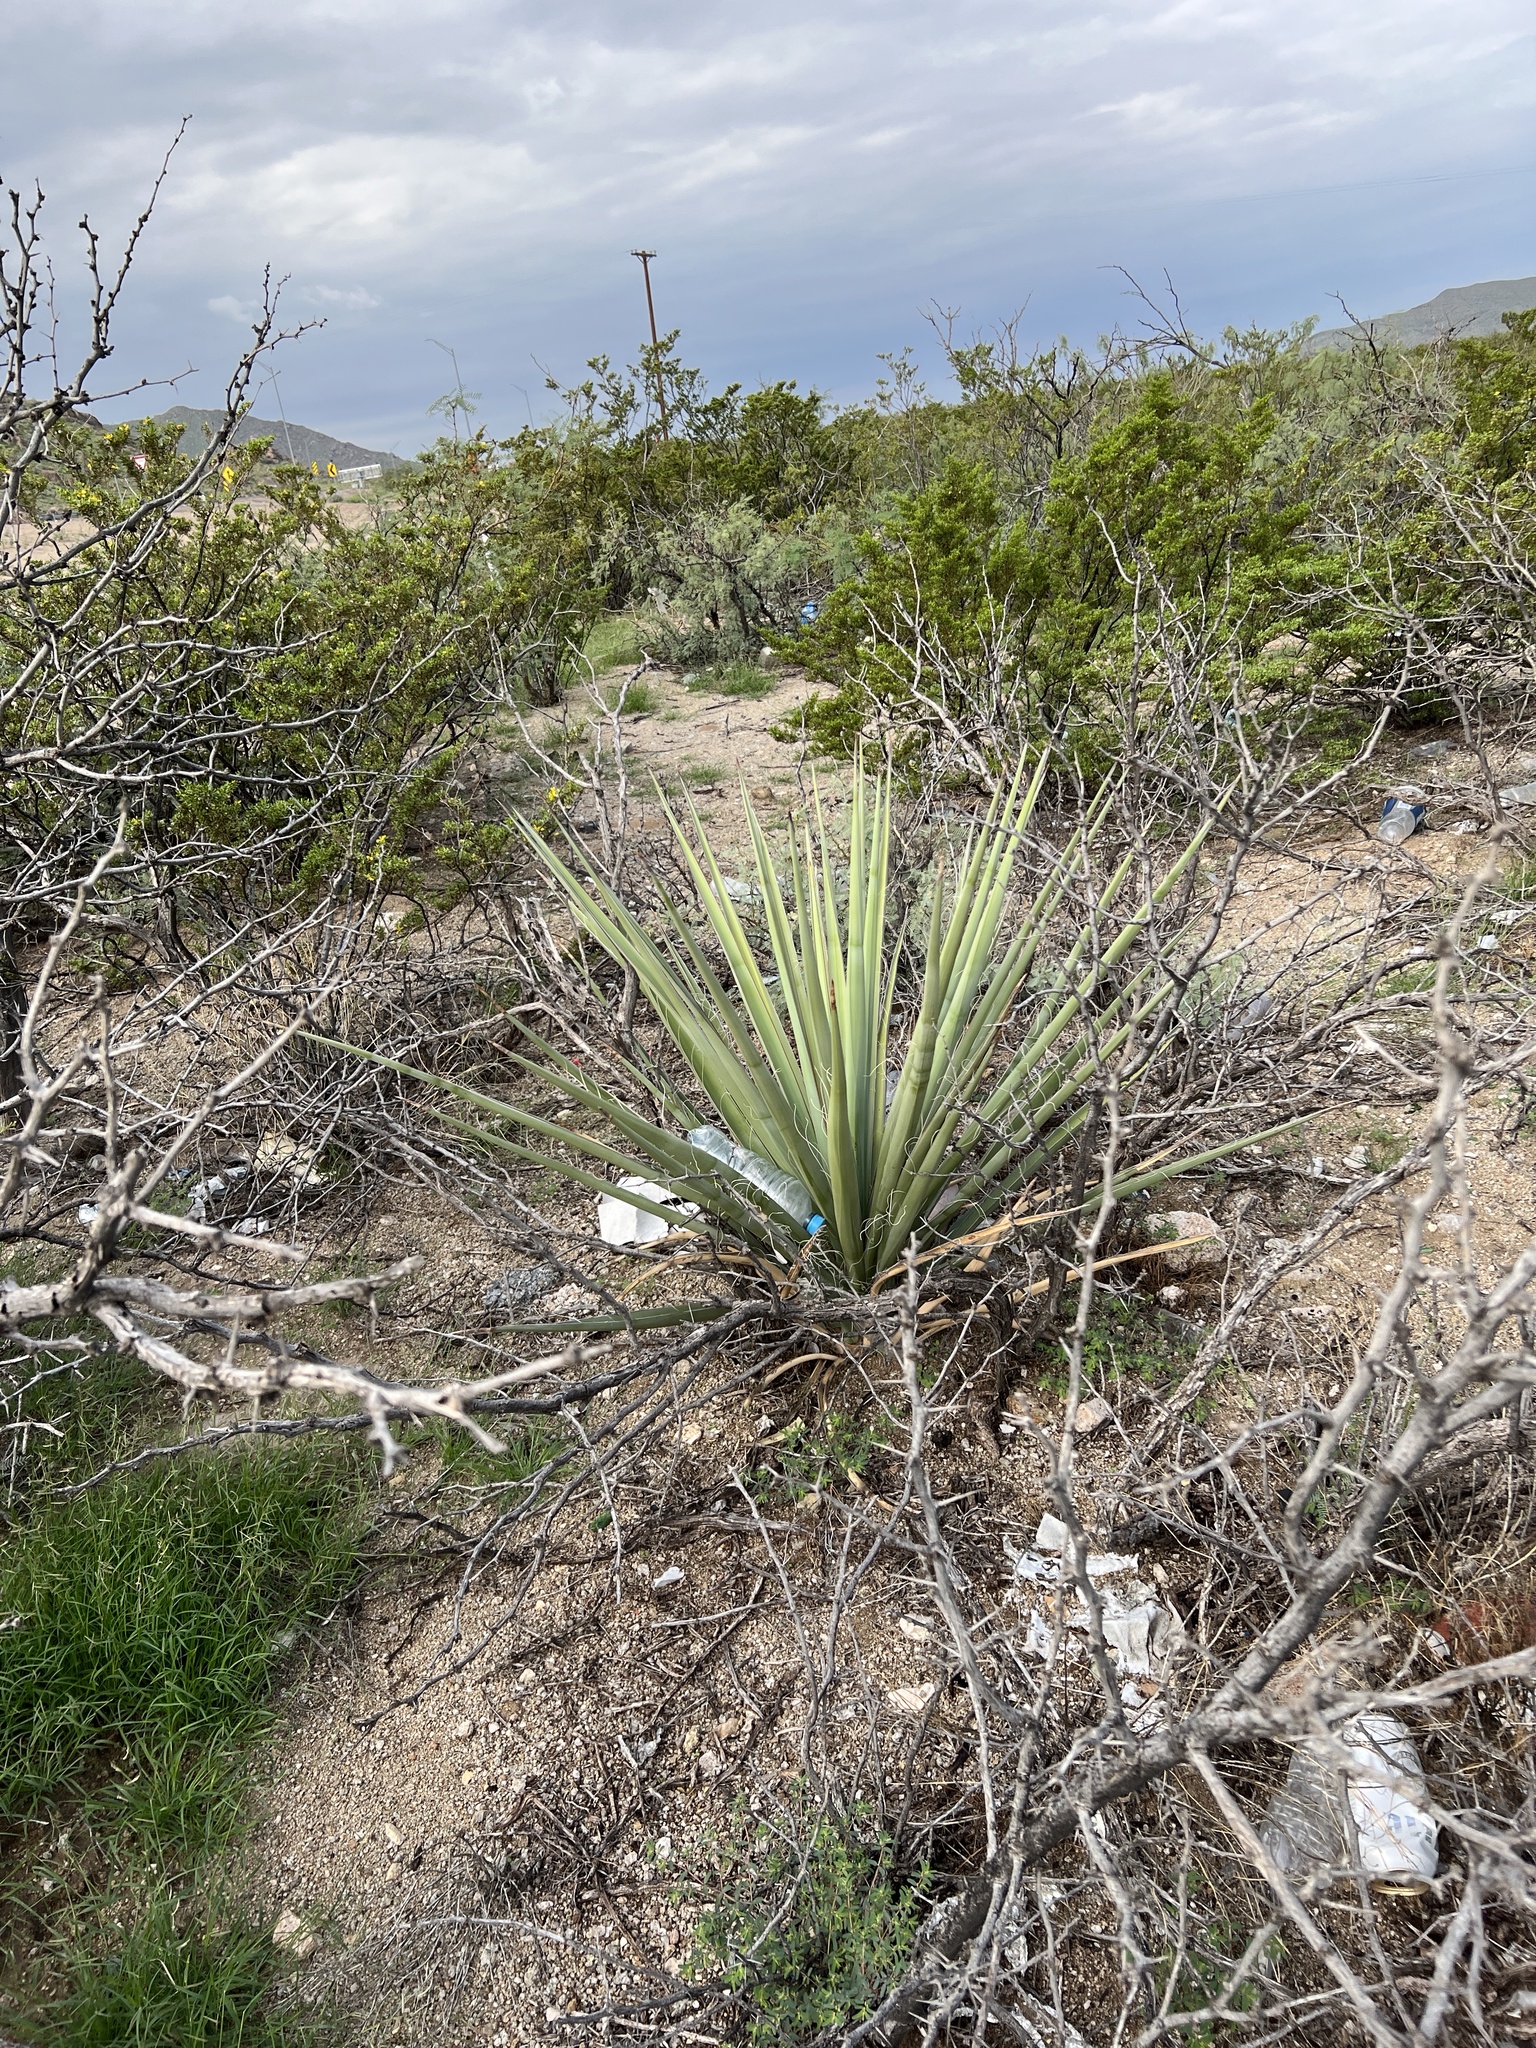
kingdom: Plantae
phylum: Tracheophyta
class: Liliopsida
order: Asparagales
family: Asparagaceae
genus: Yucca
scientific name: Yucca treculiana
